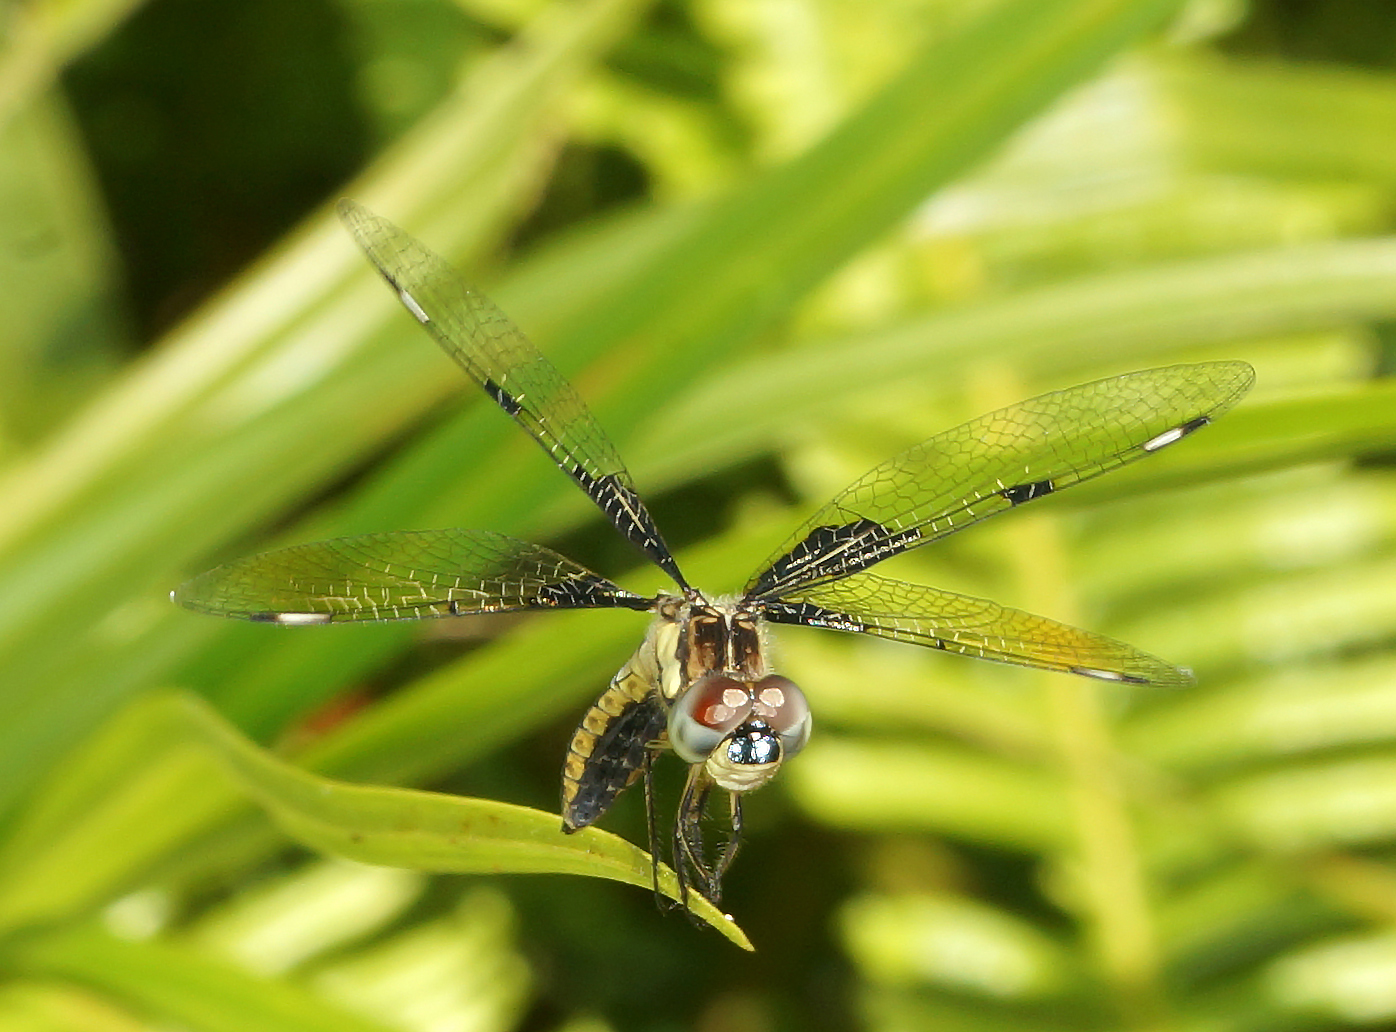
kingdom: Animalia
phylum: Arthropoda
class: Insecta
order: Odonata
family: Libellulidae
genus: Palpopleura
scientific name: Palpopleura sexmaculata
